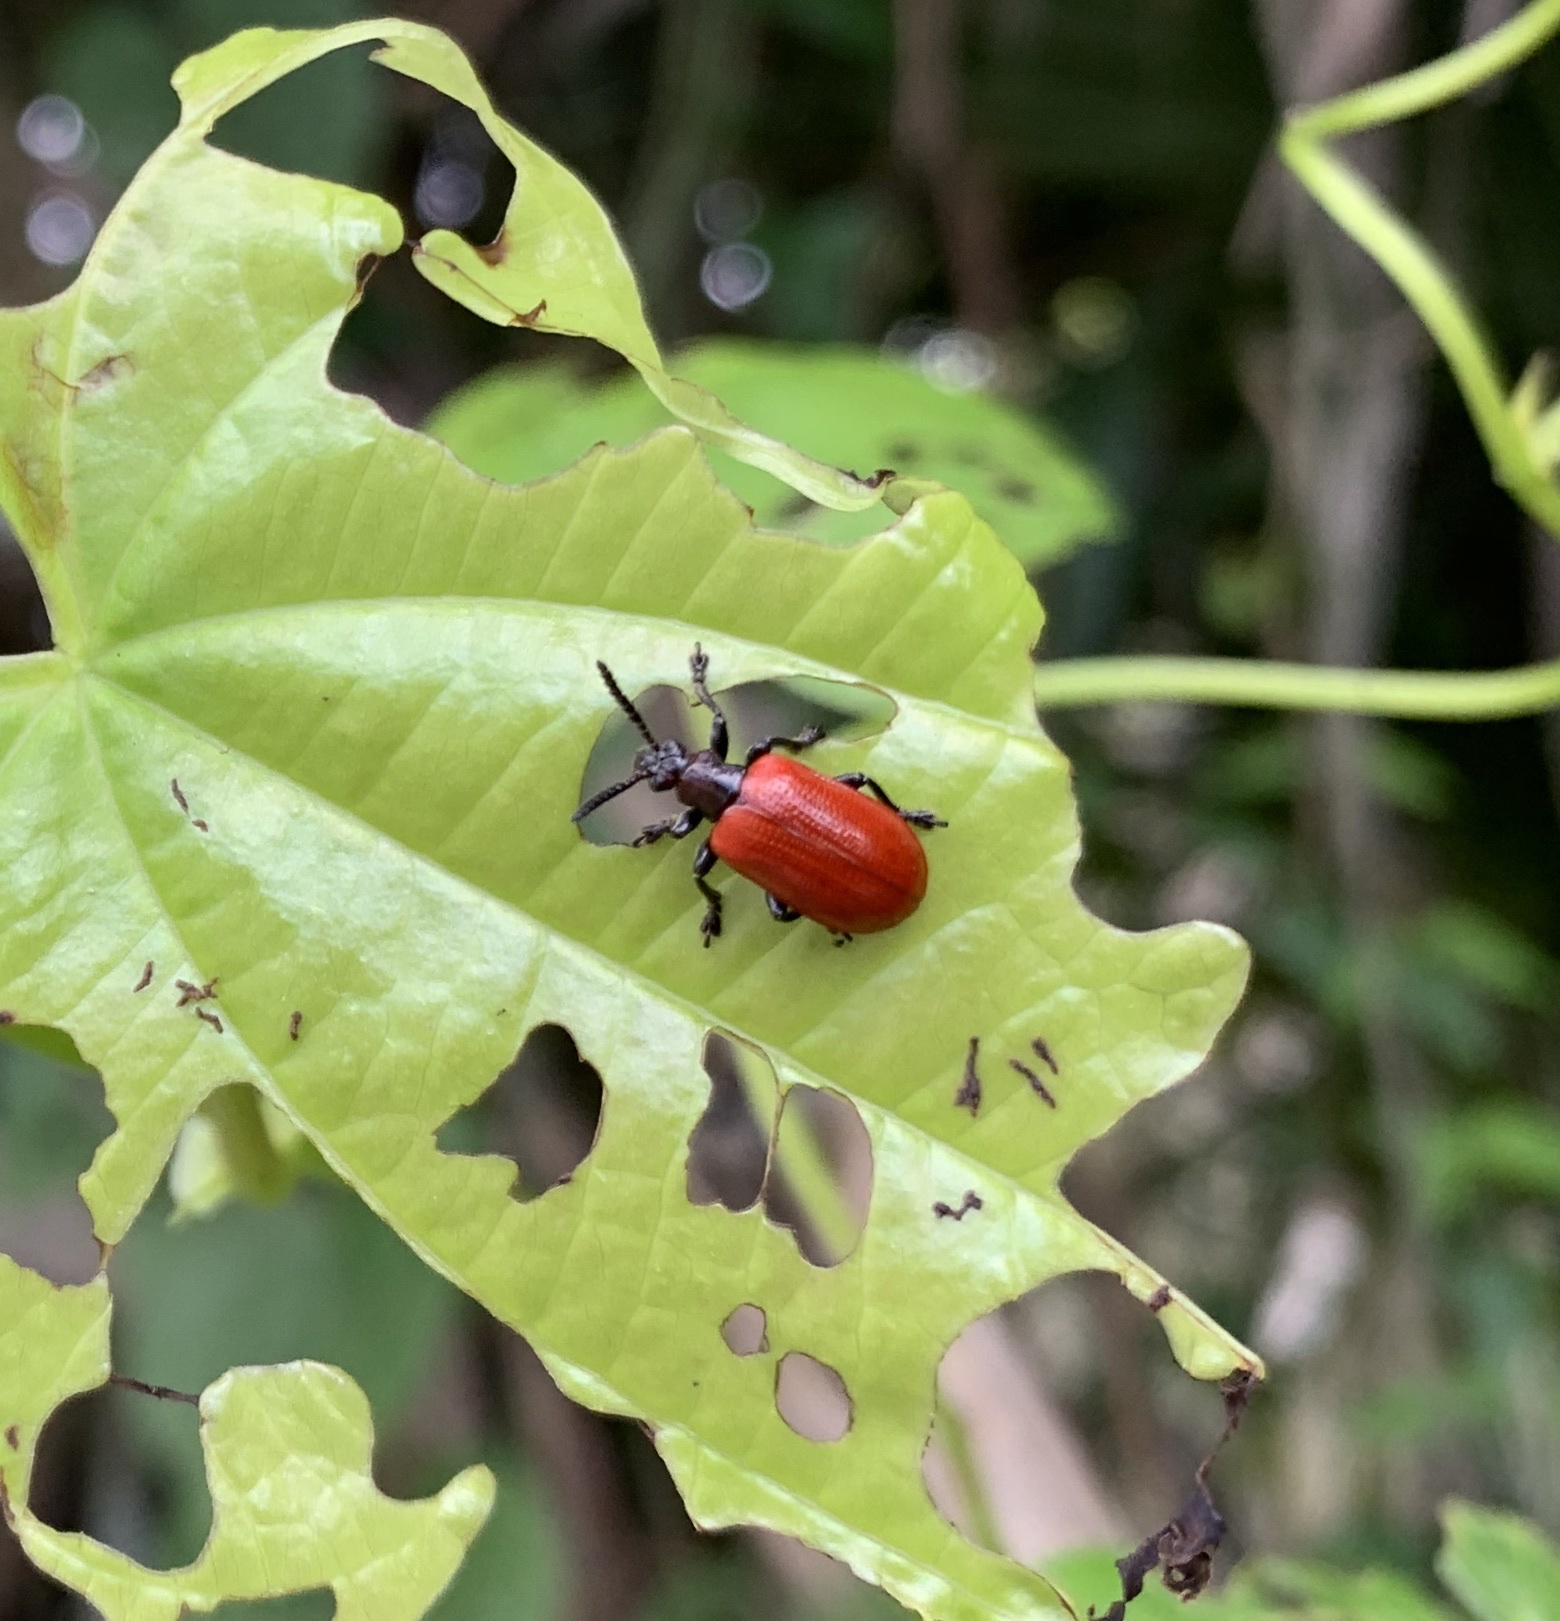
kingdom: Animalia
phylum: Arthropoda
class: Insecta
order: Coleoptera
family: Chrysomelidae
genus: Lilioceris
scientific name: Lilioceris cheni
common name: Leaf beetle
